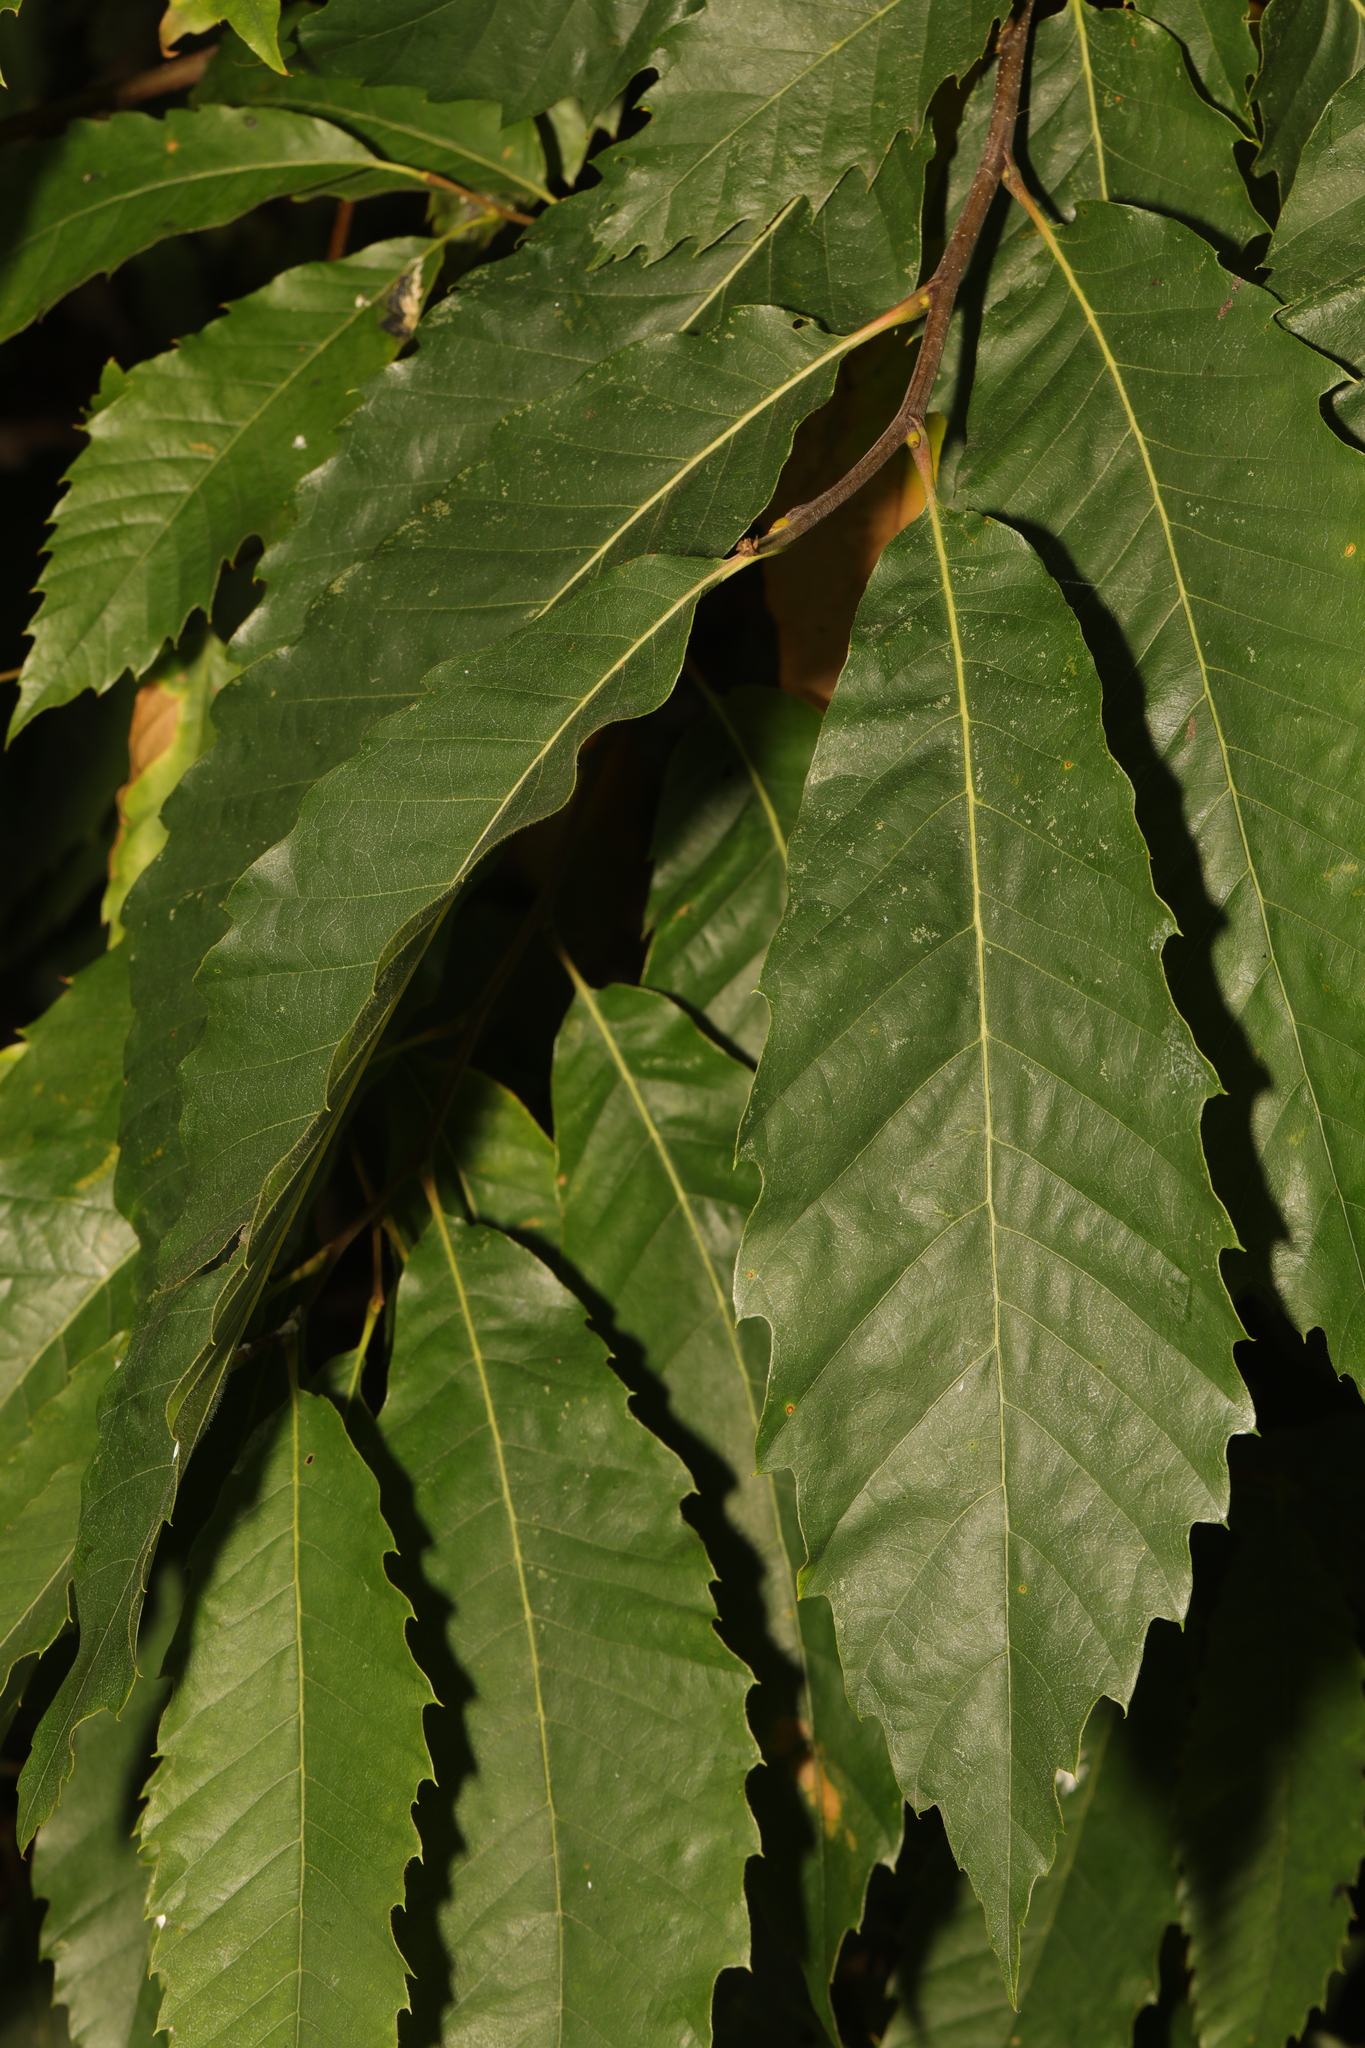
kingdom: Plantae
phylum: Tracheophyta
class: Magnoliopsida
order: Fagales
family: Fagaceae
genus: Castanea
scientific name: Castanea sativa
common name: Sweet chestnut
